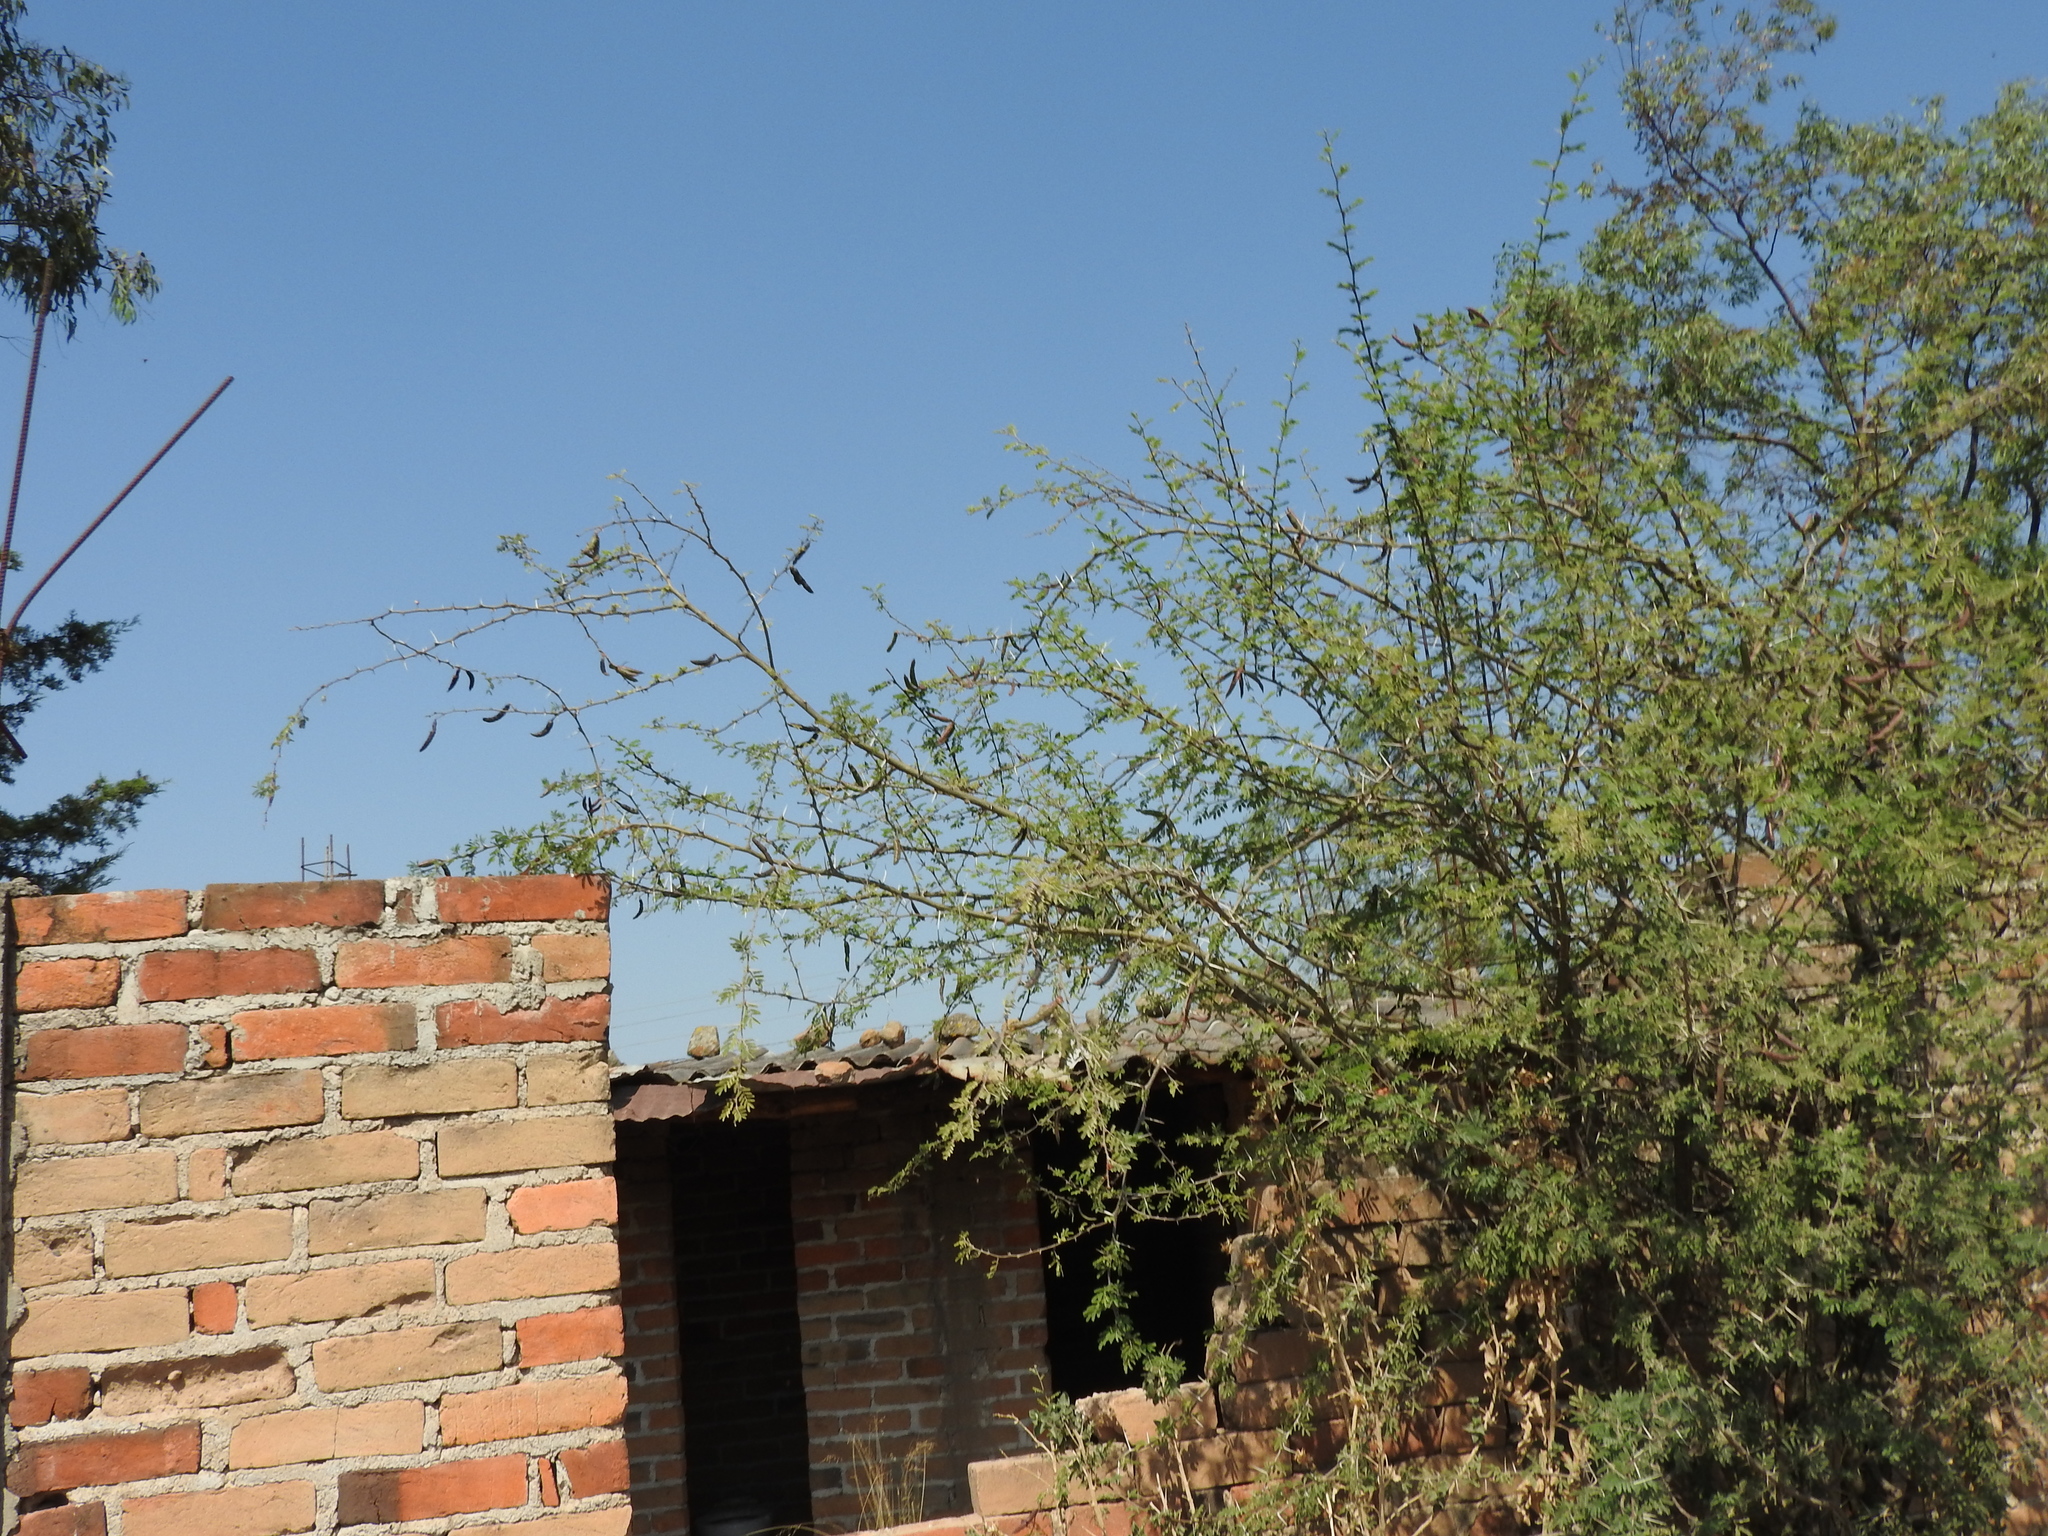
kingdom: Plantae
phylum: Tracheophyta
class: Magnoliopsida
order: Fabales
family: Fabaceae
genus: Vachellia
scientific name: Vachellia farnesiana
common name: Sweet acacia
